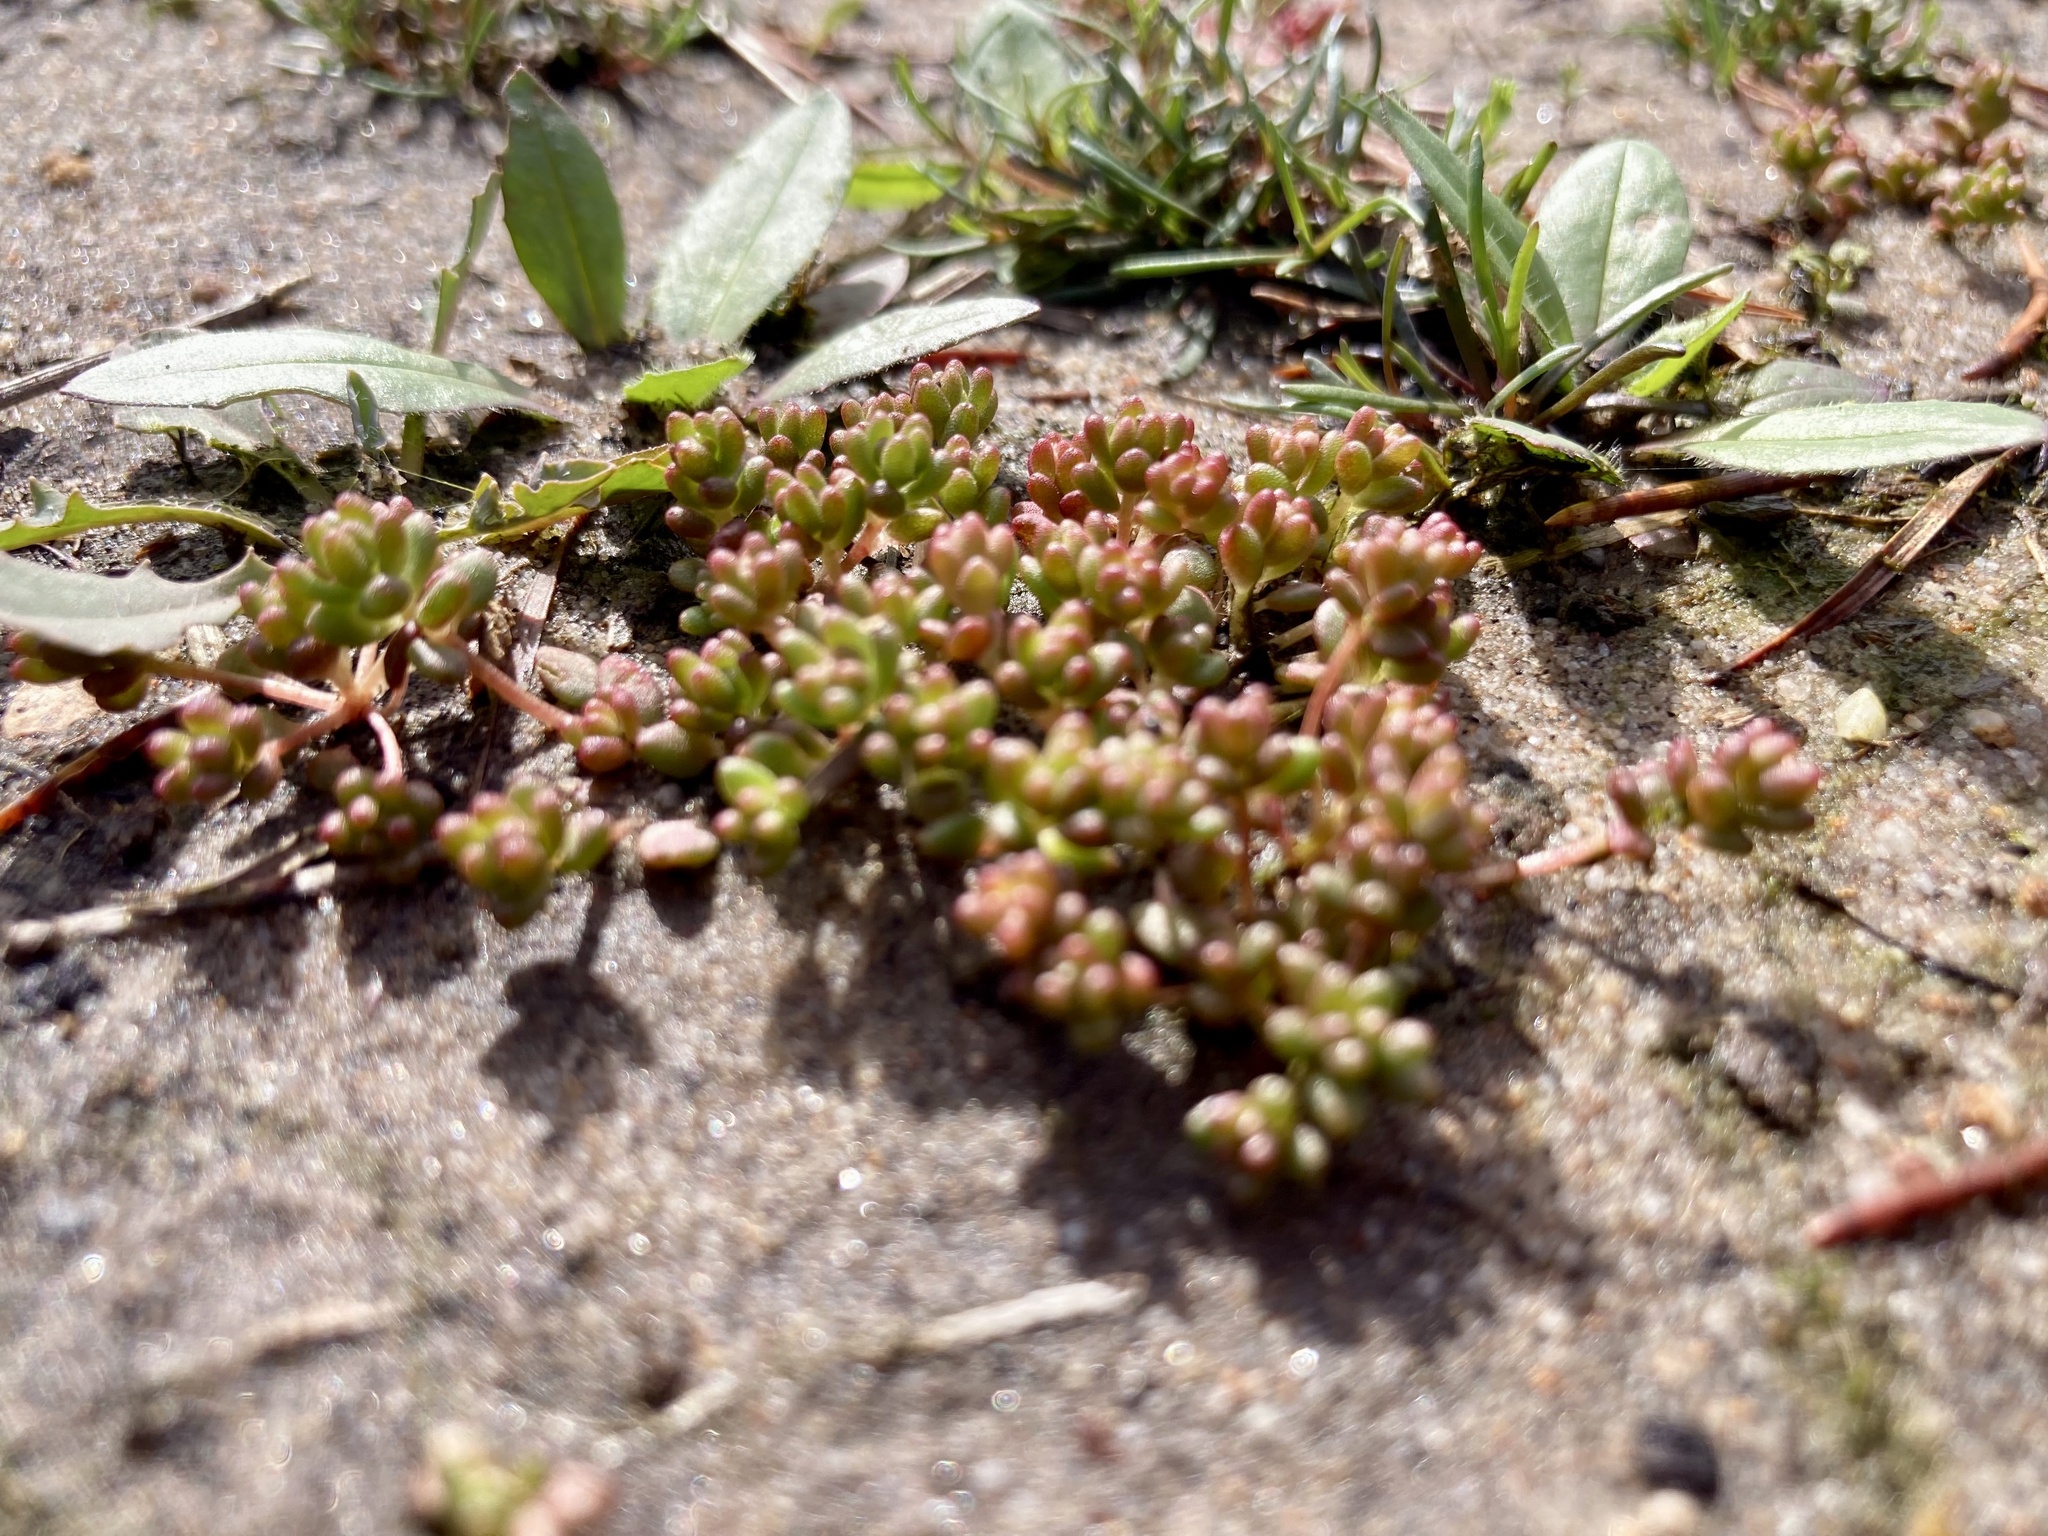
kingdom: Plantae
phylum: Tracheophyta
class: Magnoliopsida
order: Saxifragales
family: Crassulaceae
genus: Sedum
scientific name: Sedum smallii
